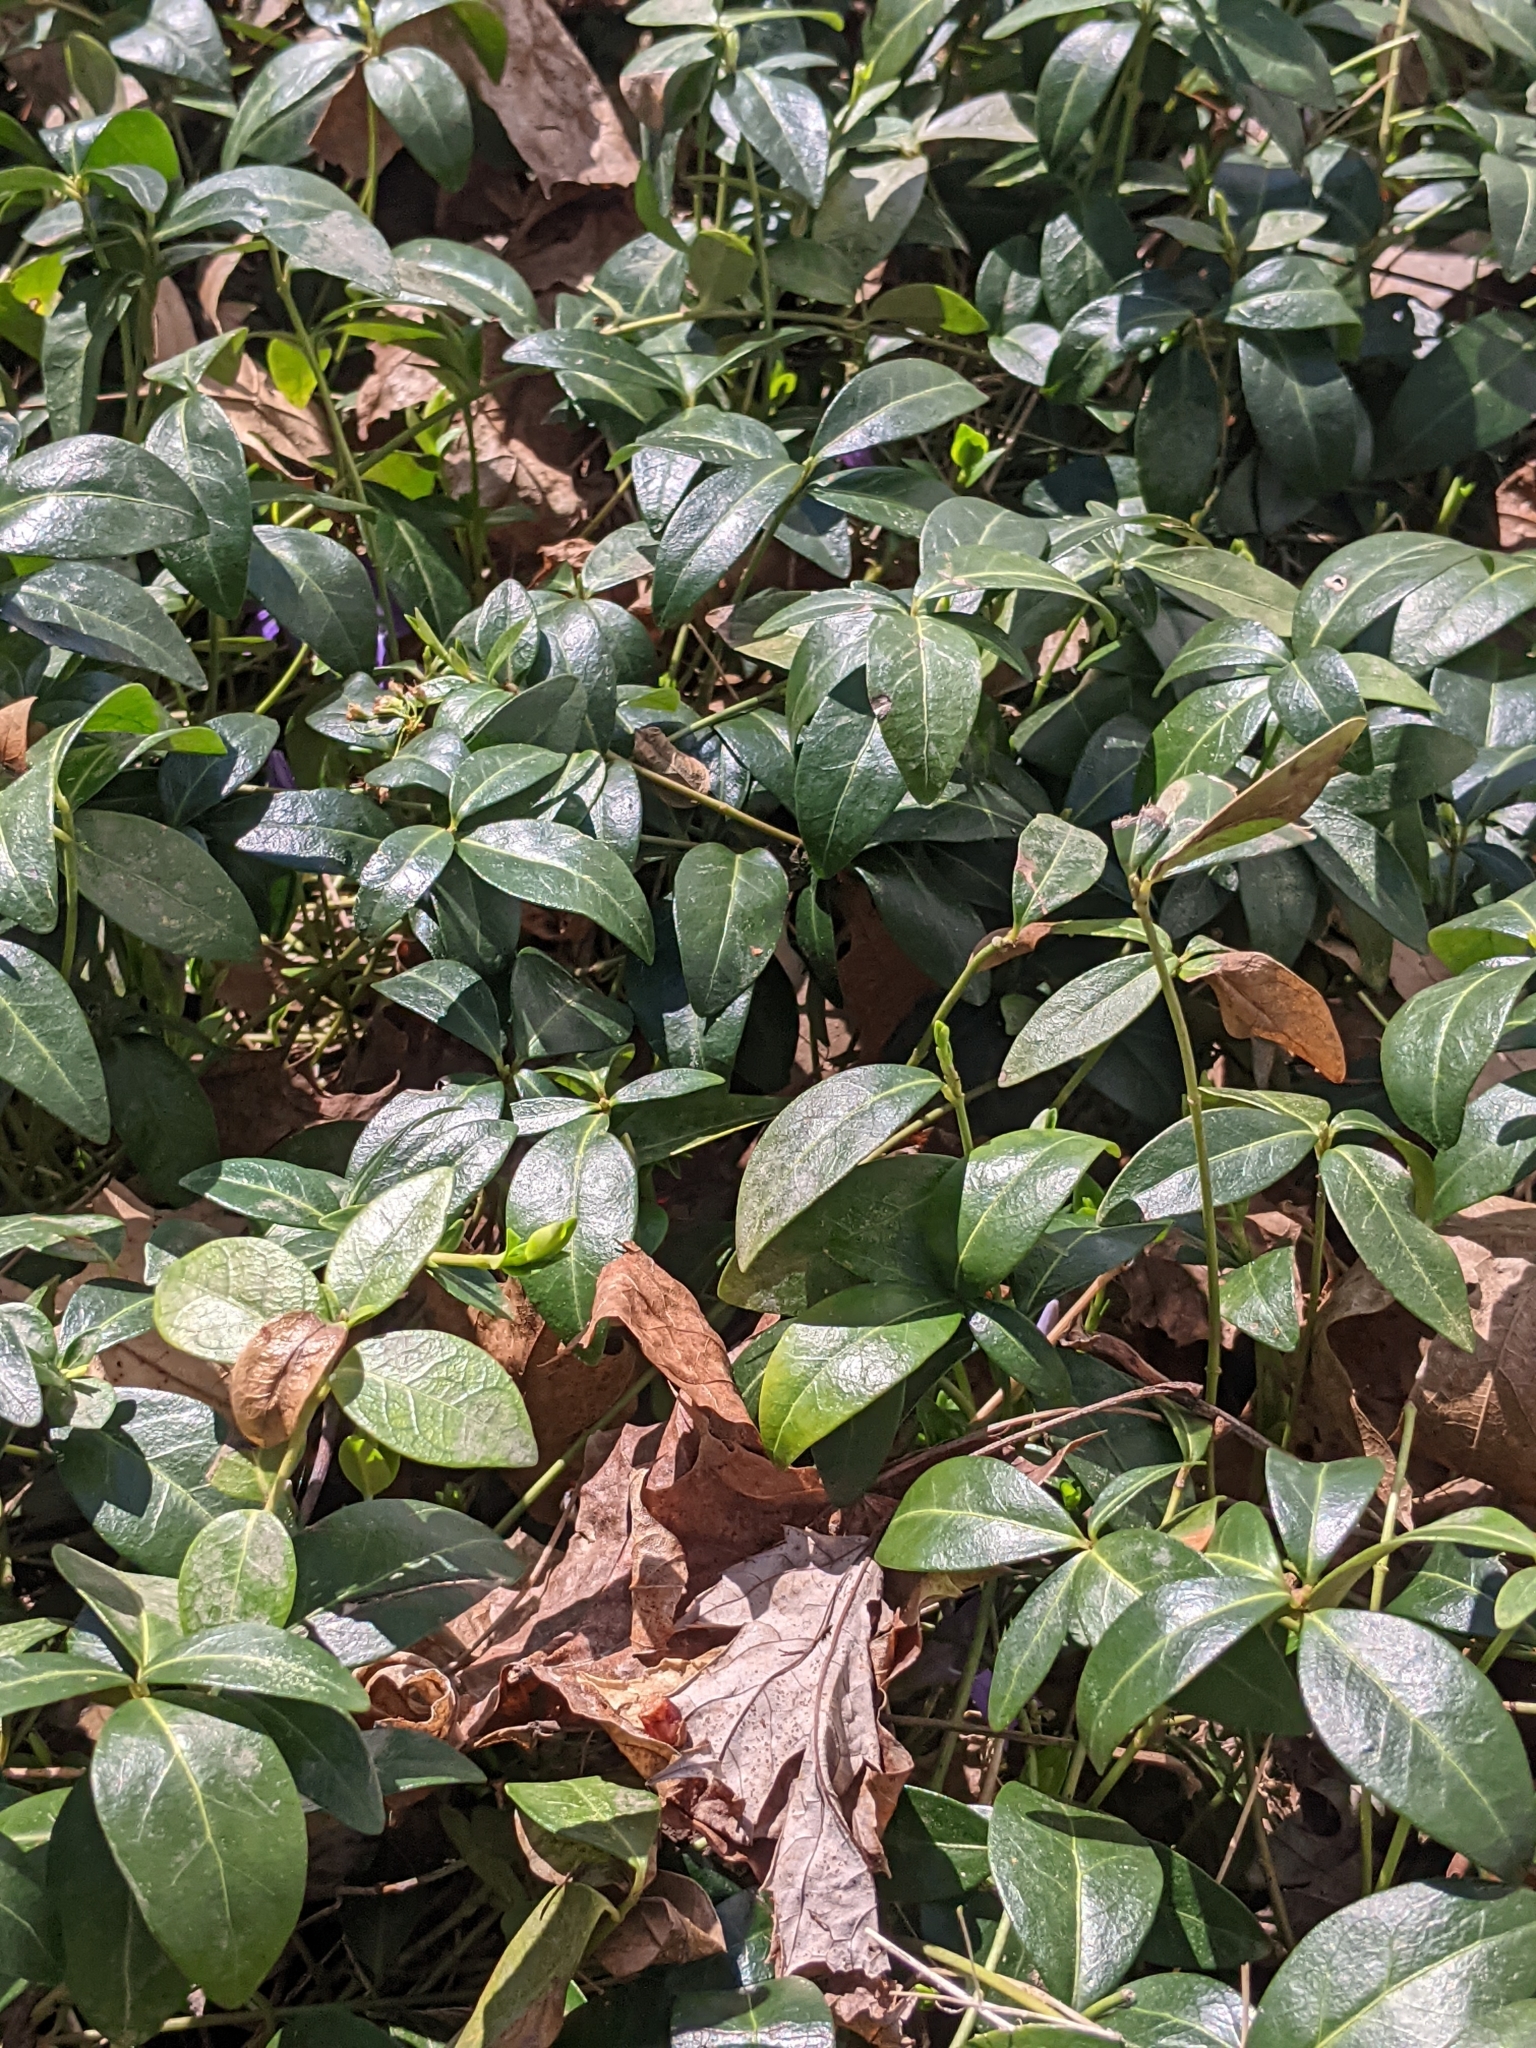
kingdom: Plantae
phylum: Tracheophyta
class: Magnoliopsida
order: Gentianales
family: Apocynaceae
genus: Vinca
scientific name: Vinca minor
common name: Lesser periwinkle
